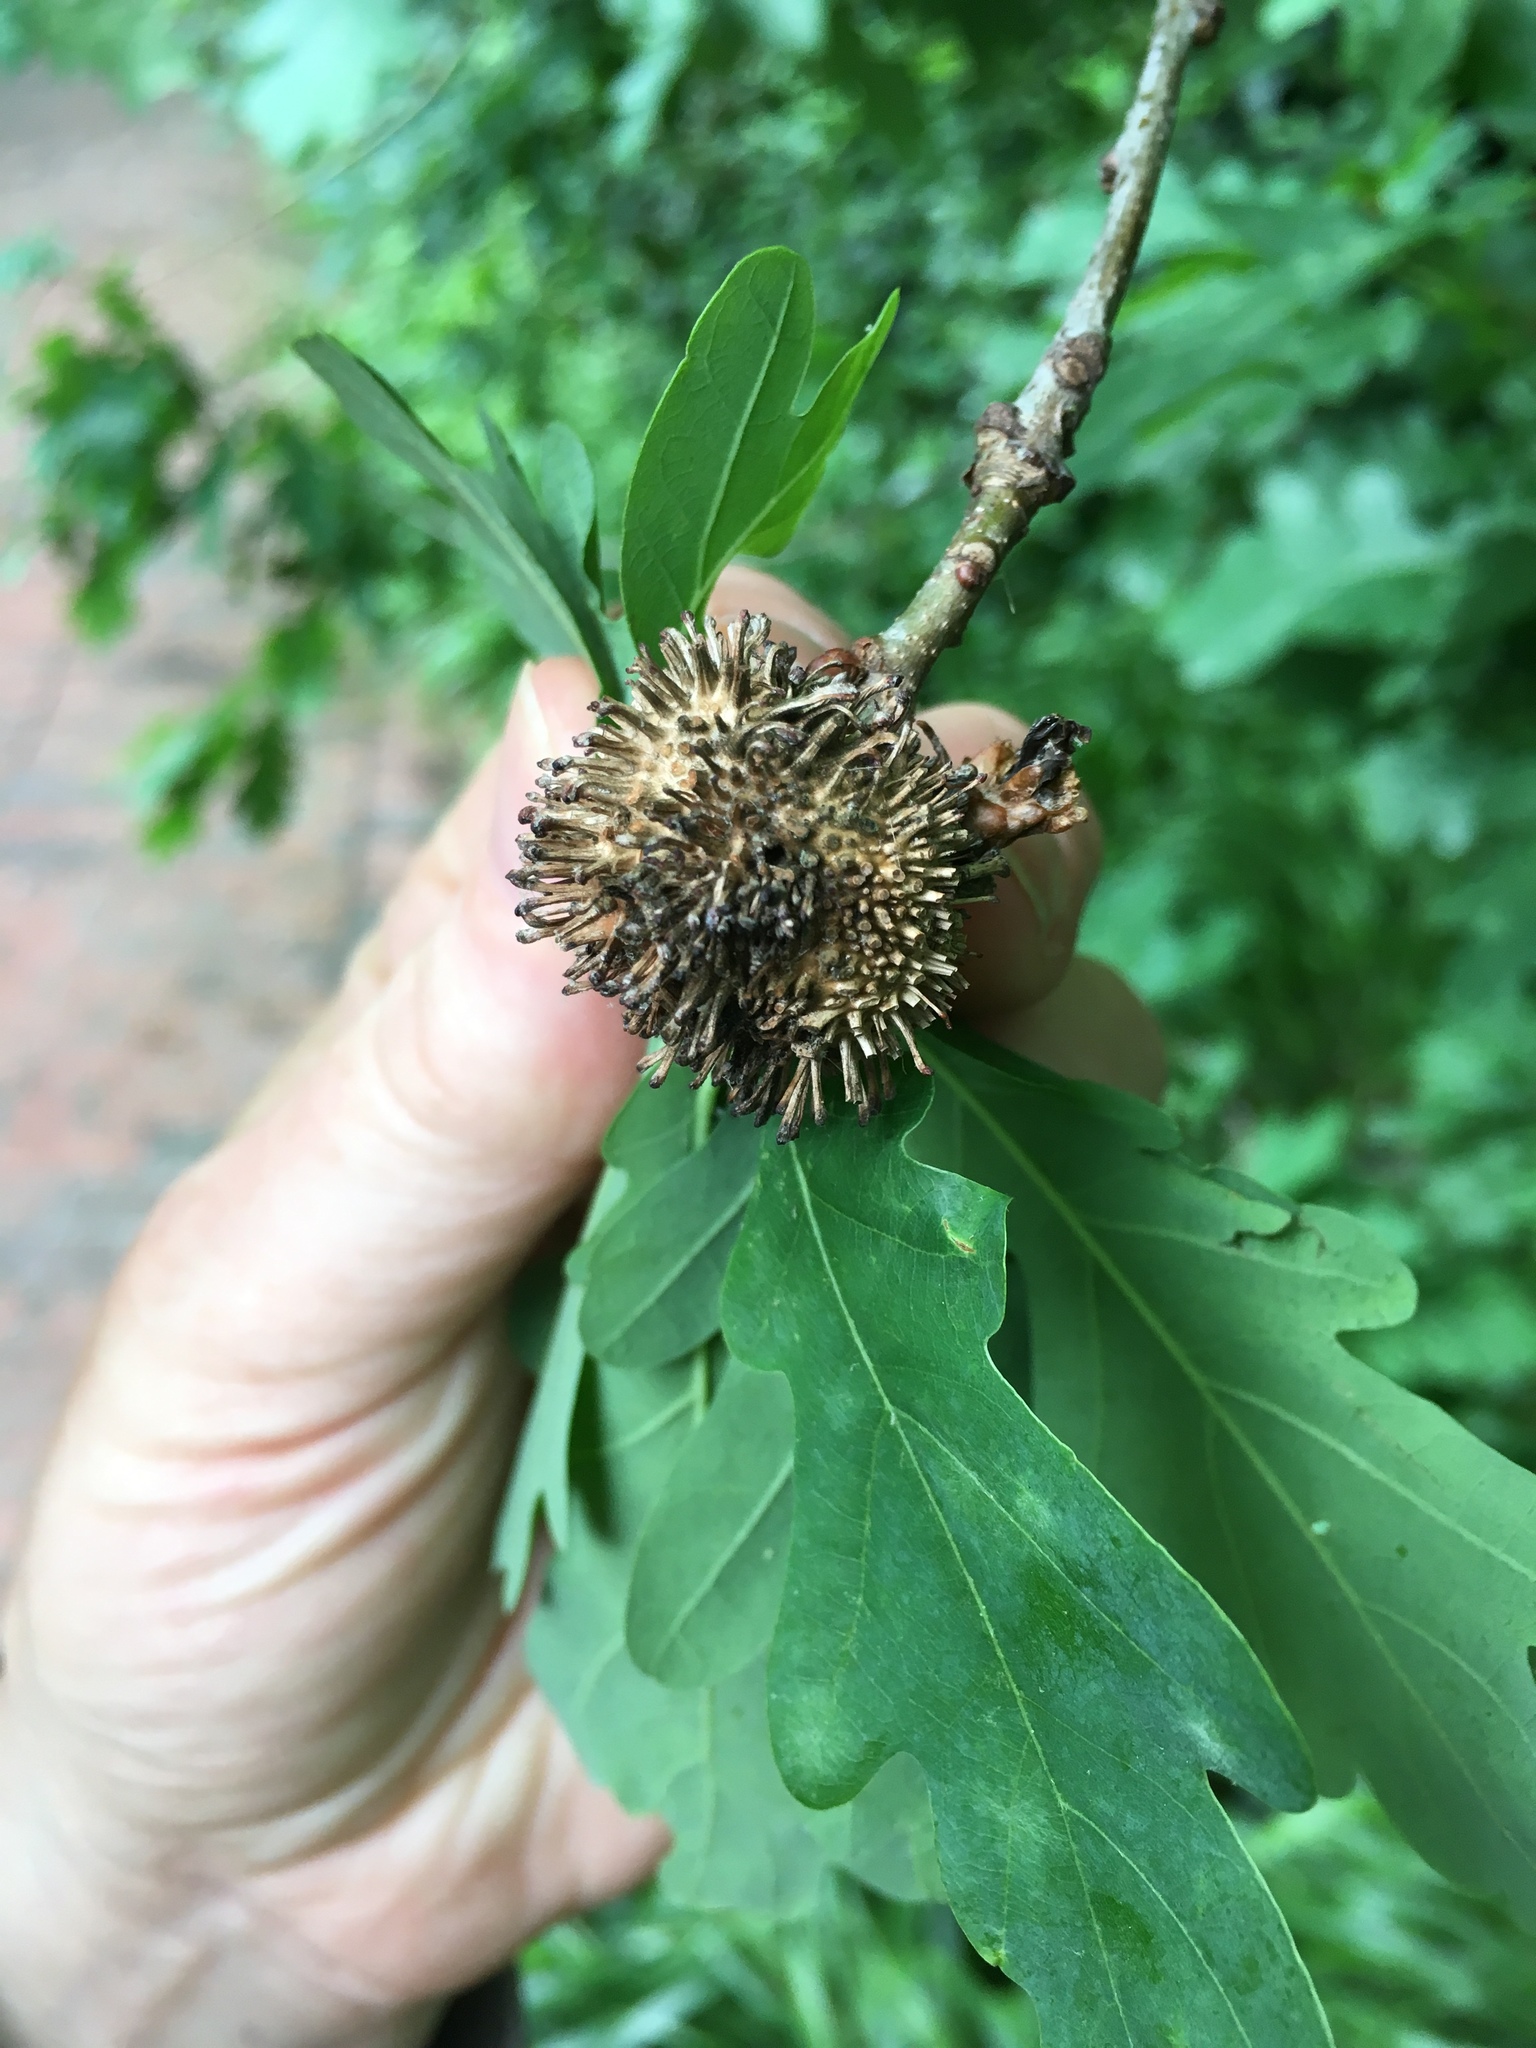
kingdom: Animalia
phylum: Arthropoda
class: Insecta
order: Hymenoptera
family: Cynipidae
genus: Andricus
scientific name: Andricus lucidus
